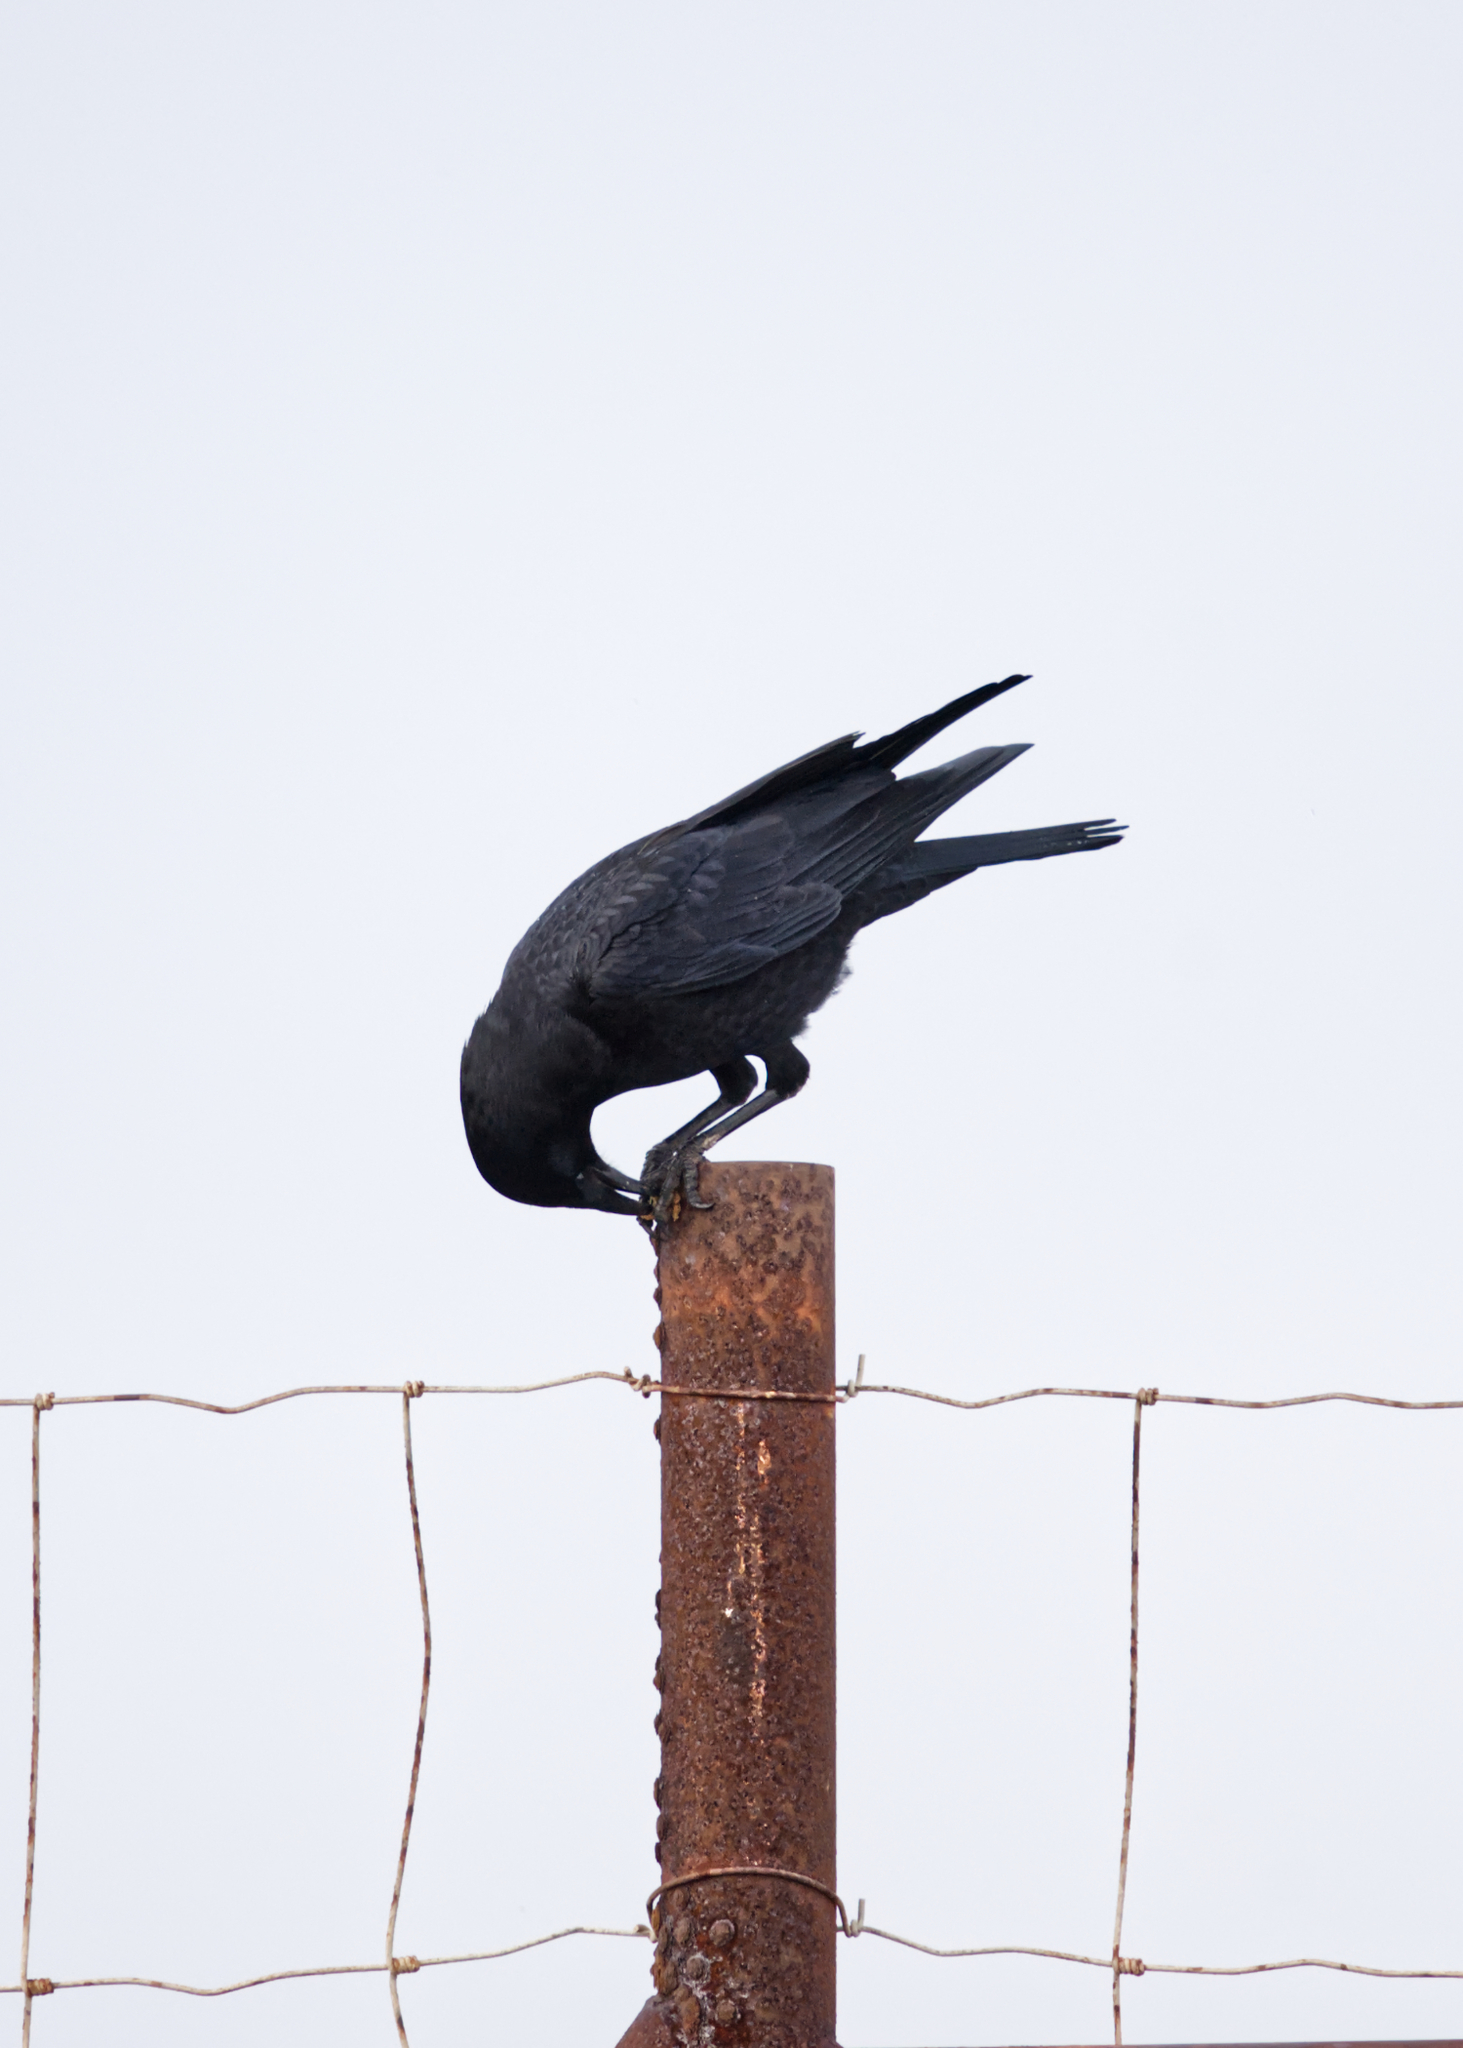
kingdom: Animalia
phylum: Chordata
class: Aves
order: Passeriformes
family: Corvidae
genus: Corvus
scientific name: Corvus brachyrhynchos
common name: American crow
